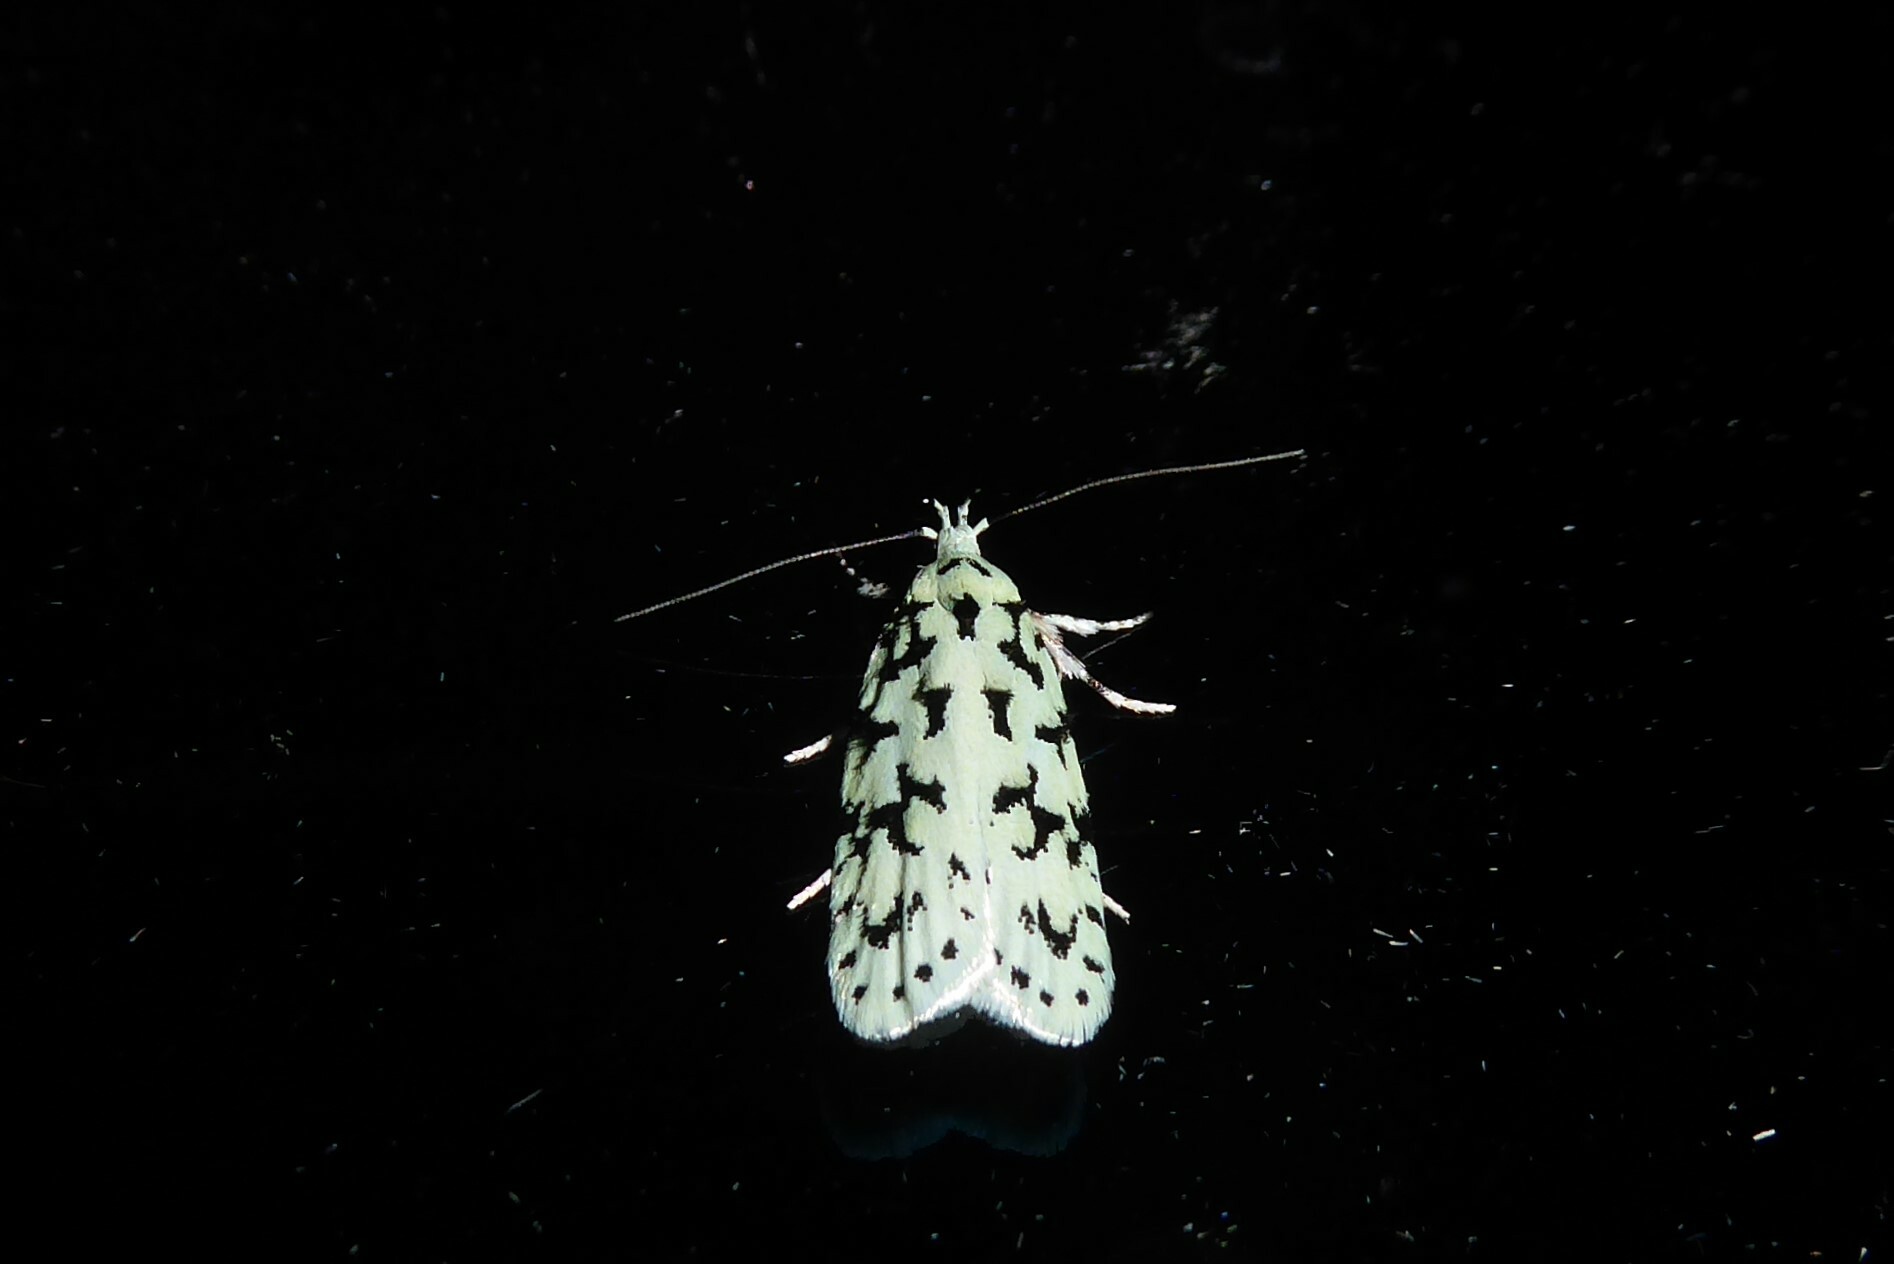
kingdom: Animalia
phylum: Arthropoda
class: Insecta
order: Lepidoptera
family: Oecophoridae
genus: Izatha
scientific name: Izatha huttoni
